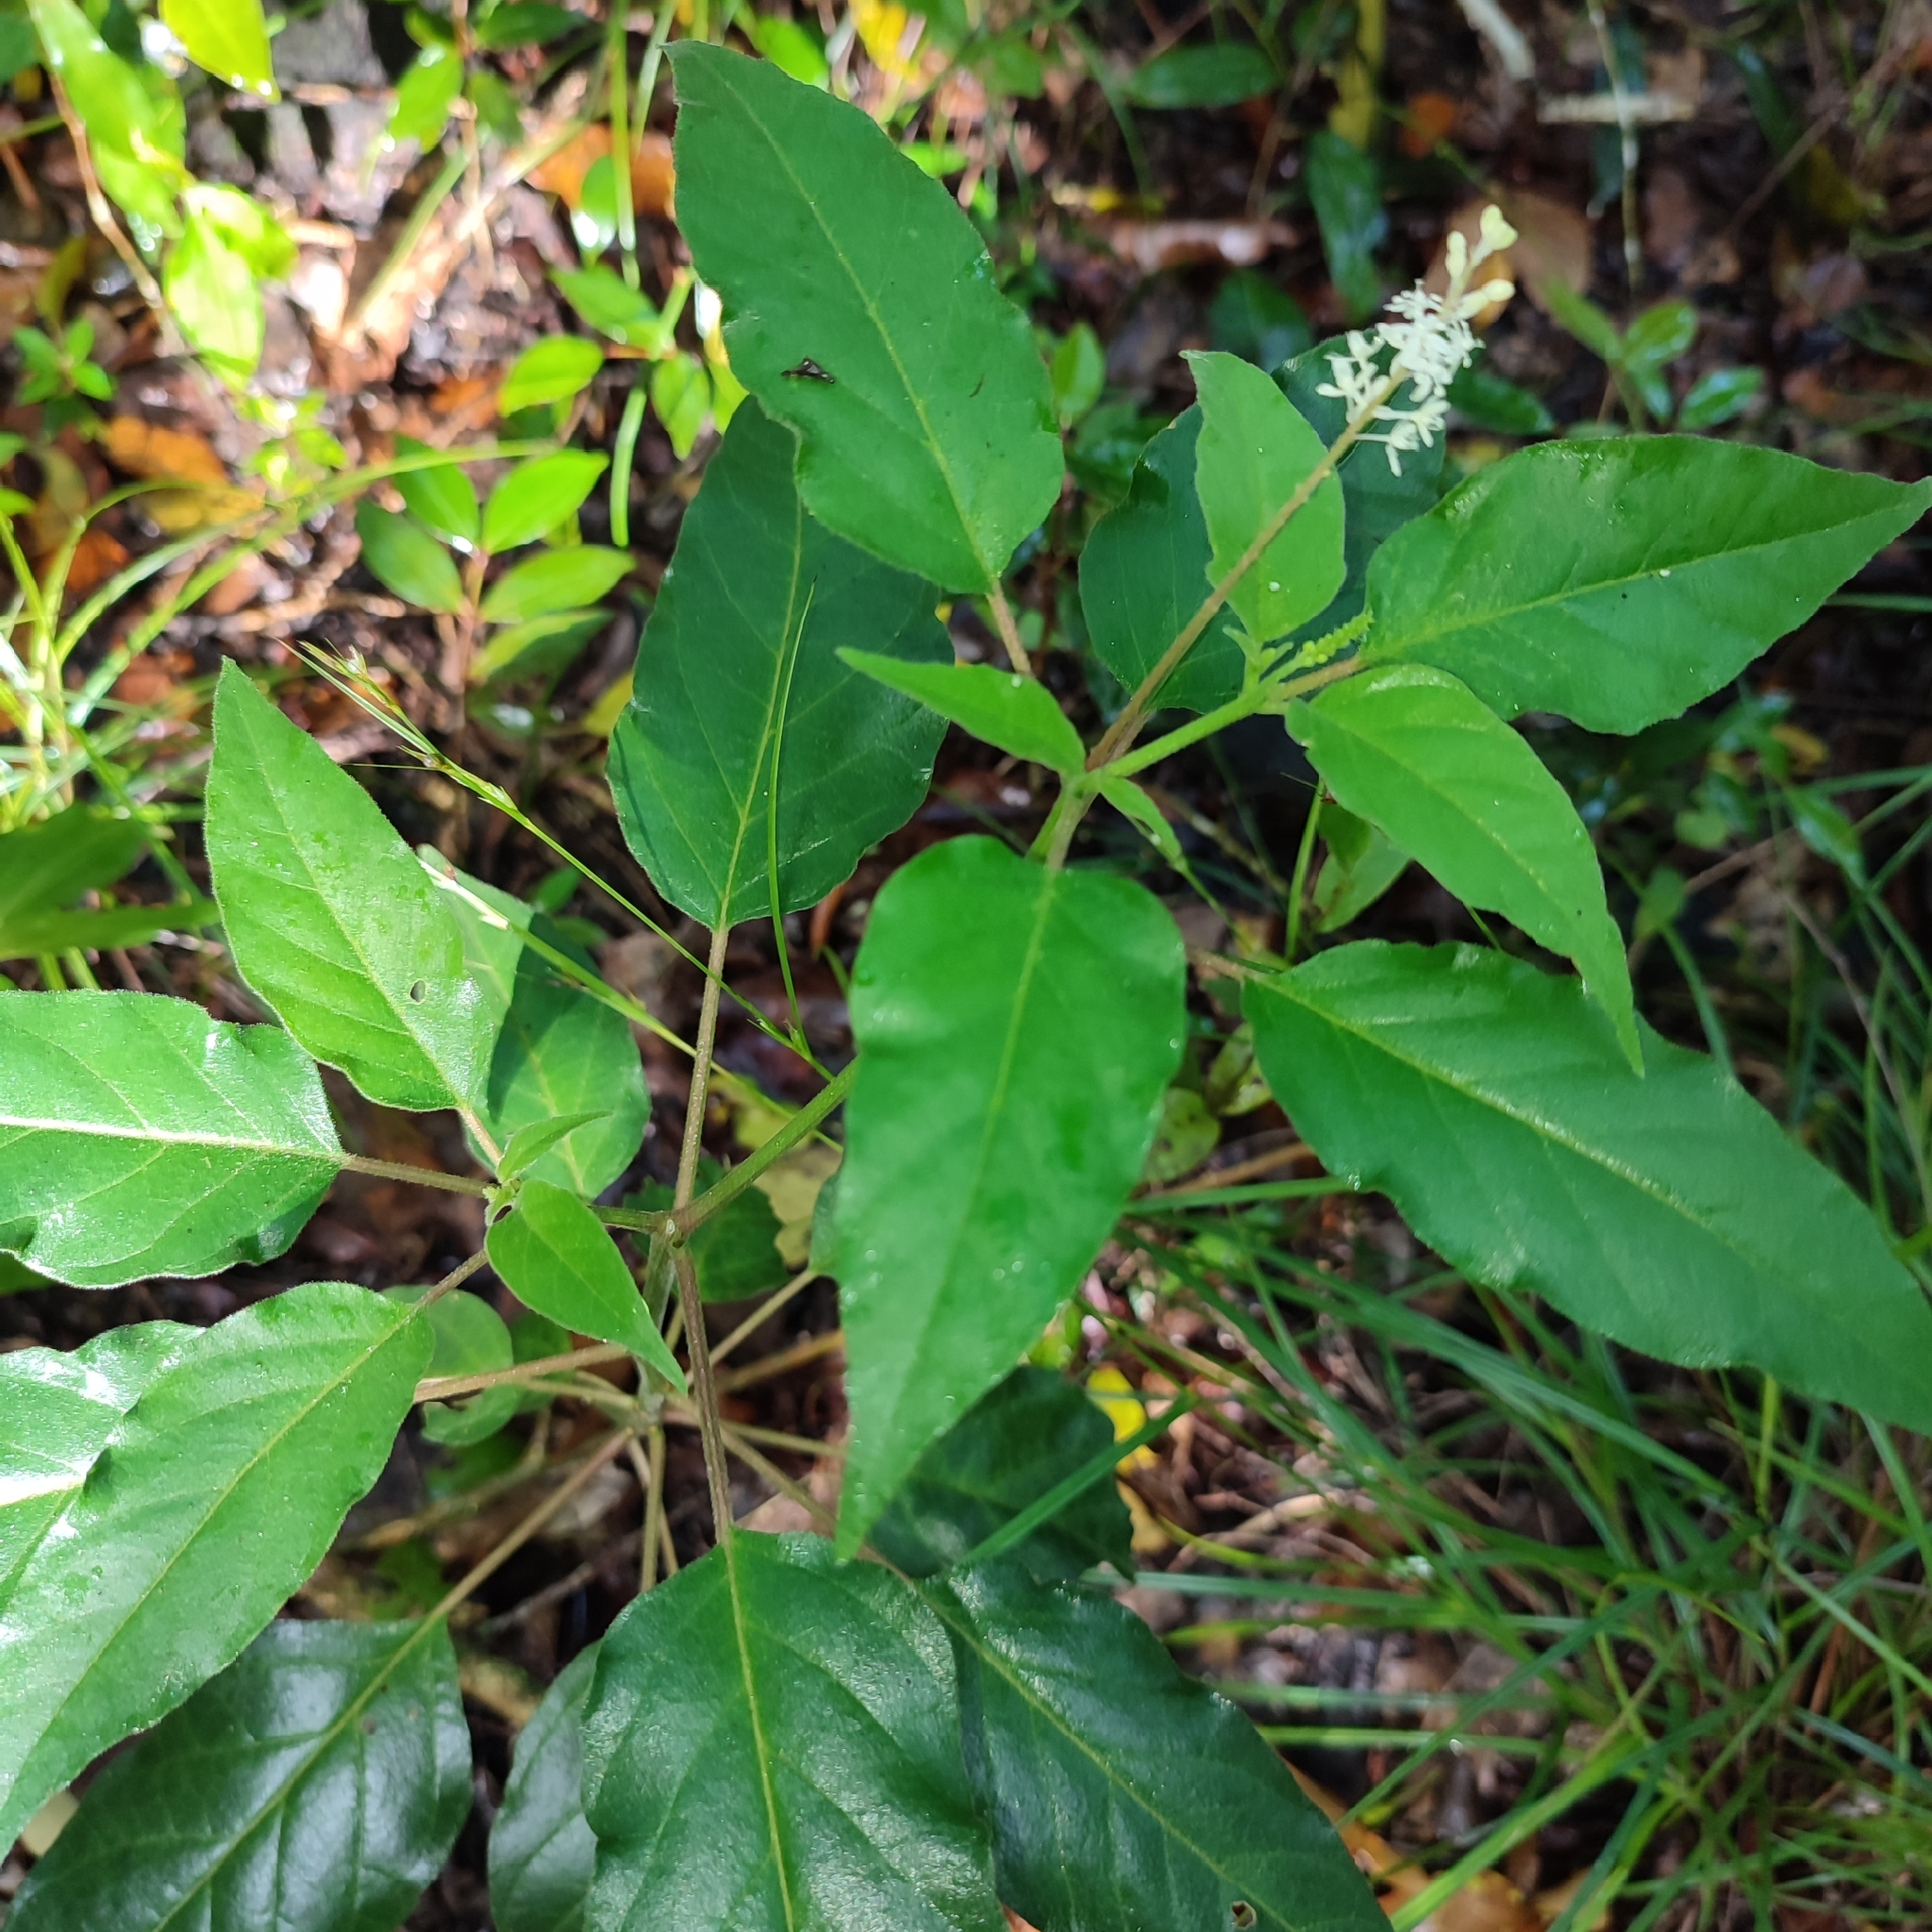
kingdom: Plantae
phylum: Tracheophyta
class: Magnoliopsida
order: Caryophyllales
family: Phytolaccaceae
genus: Rivina
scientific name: Rivina humilis
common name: Rougeplant
